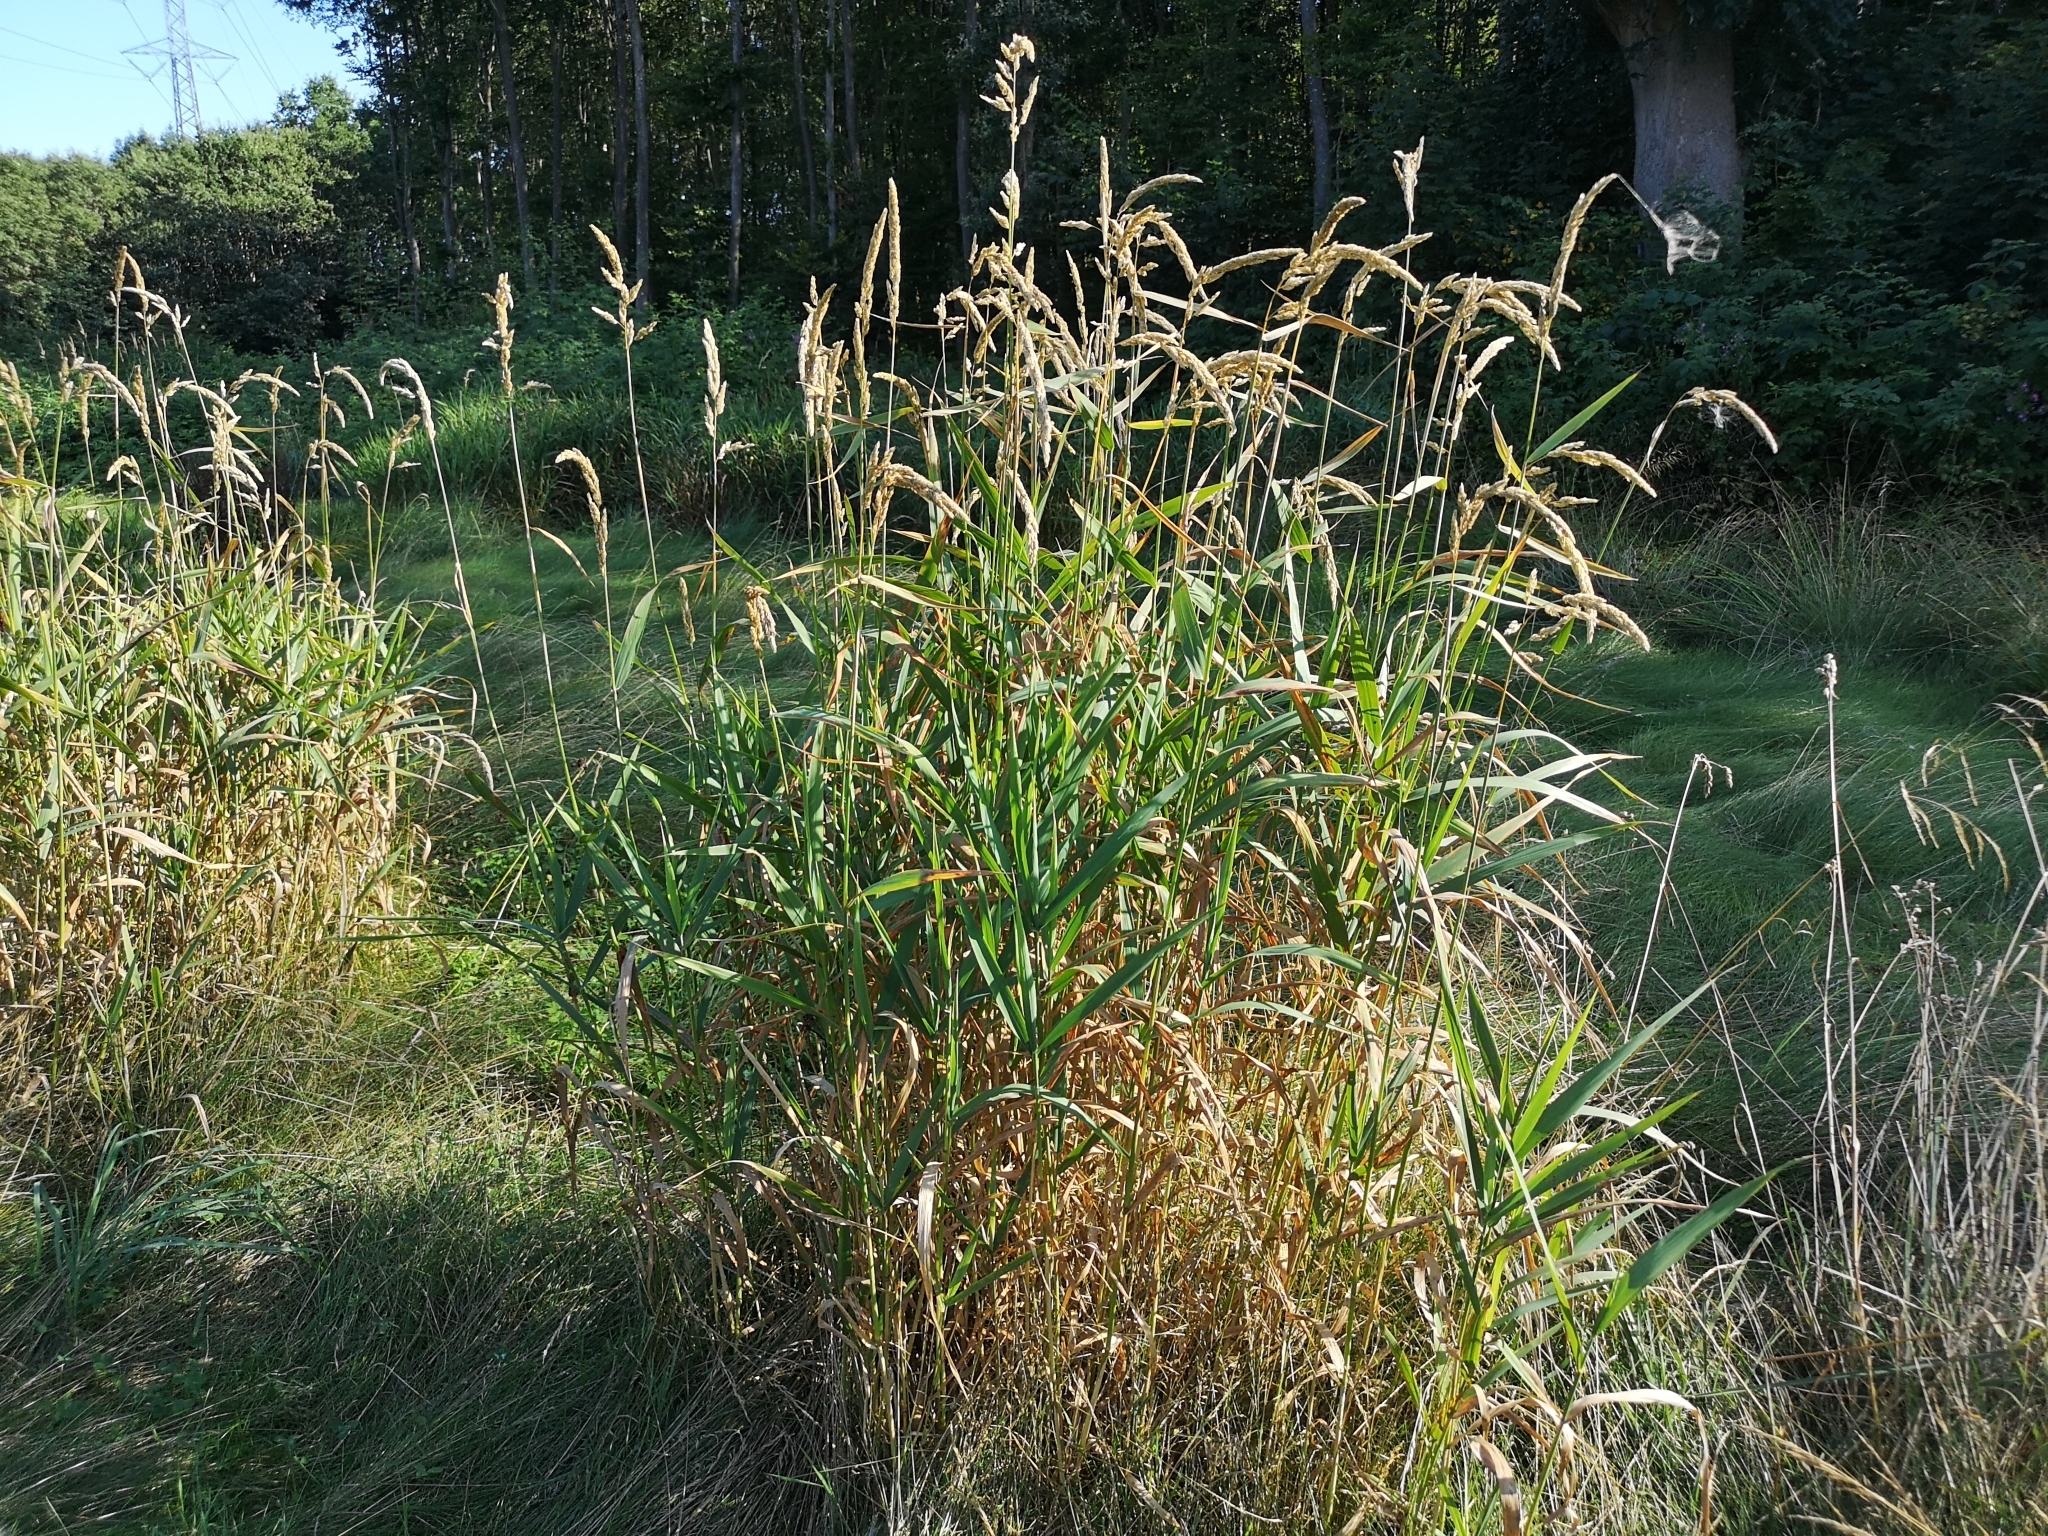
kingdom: Plantae
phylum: Tracheophyta
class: Liliopsida
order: Poales
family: Poaceae
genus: Phalaris
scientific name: Phalaris arundinacea
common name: Reed canary-grass
